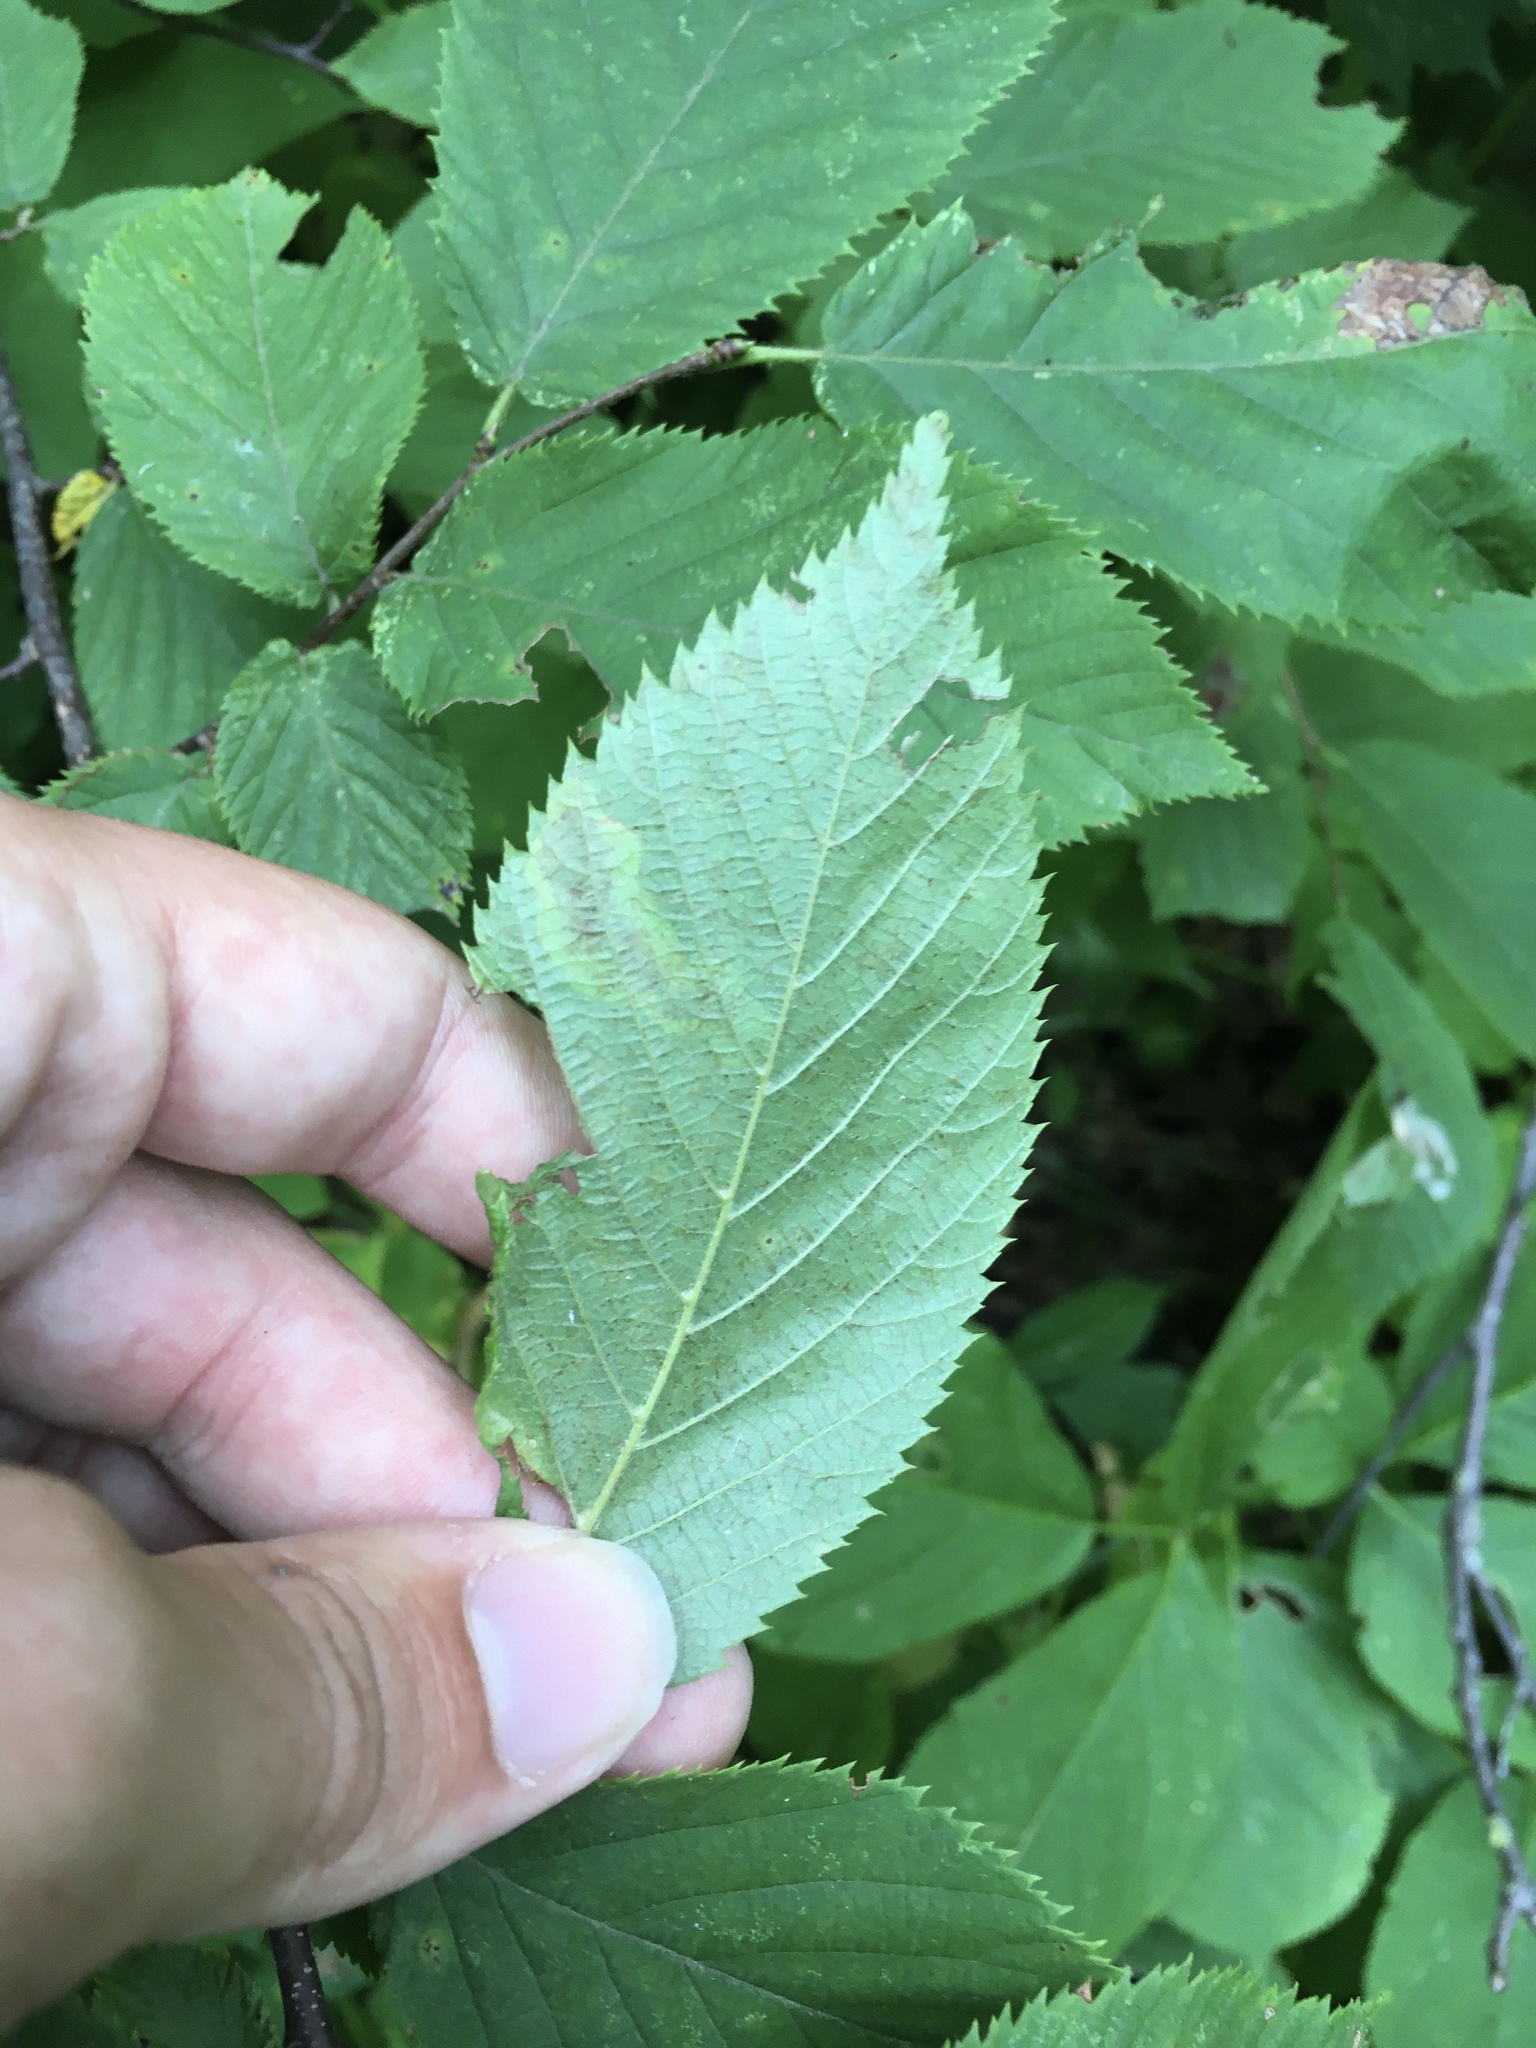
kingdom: Animalia
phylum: Arthropoda
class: Insecta
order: Lepidoptera
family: Gracillariidae
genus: Cameraria
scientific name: Cameraria
